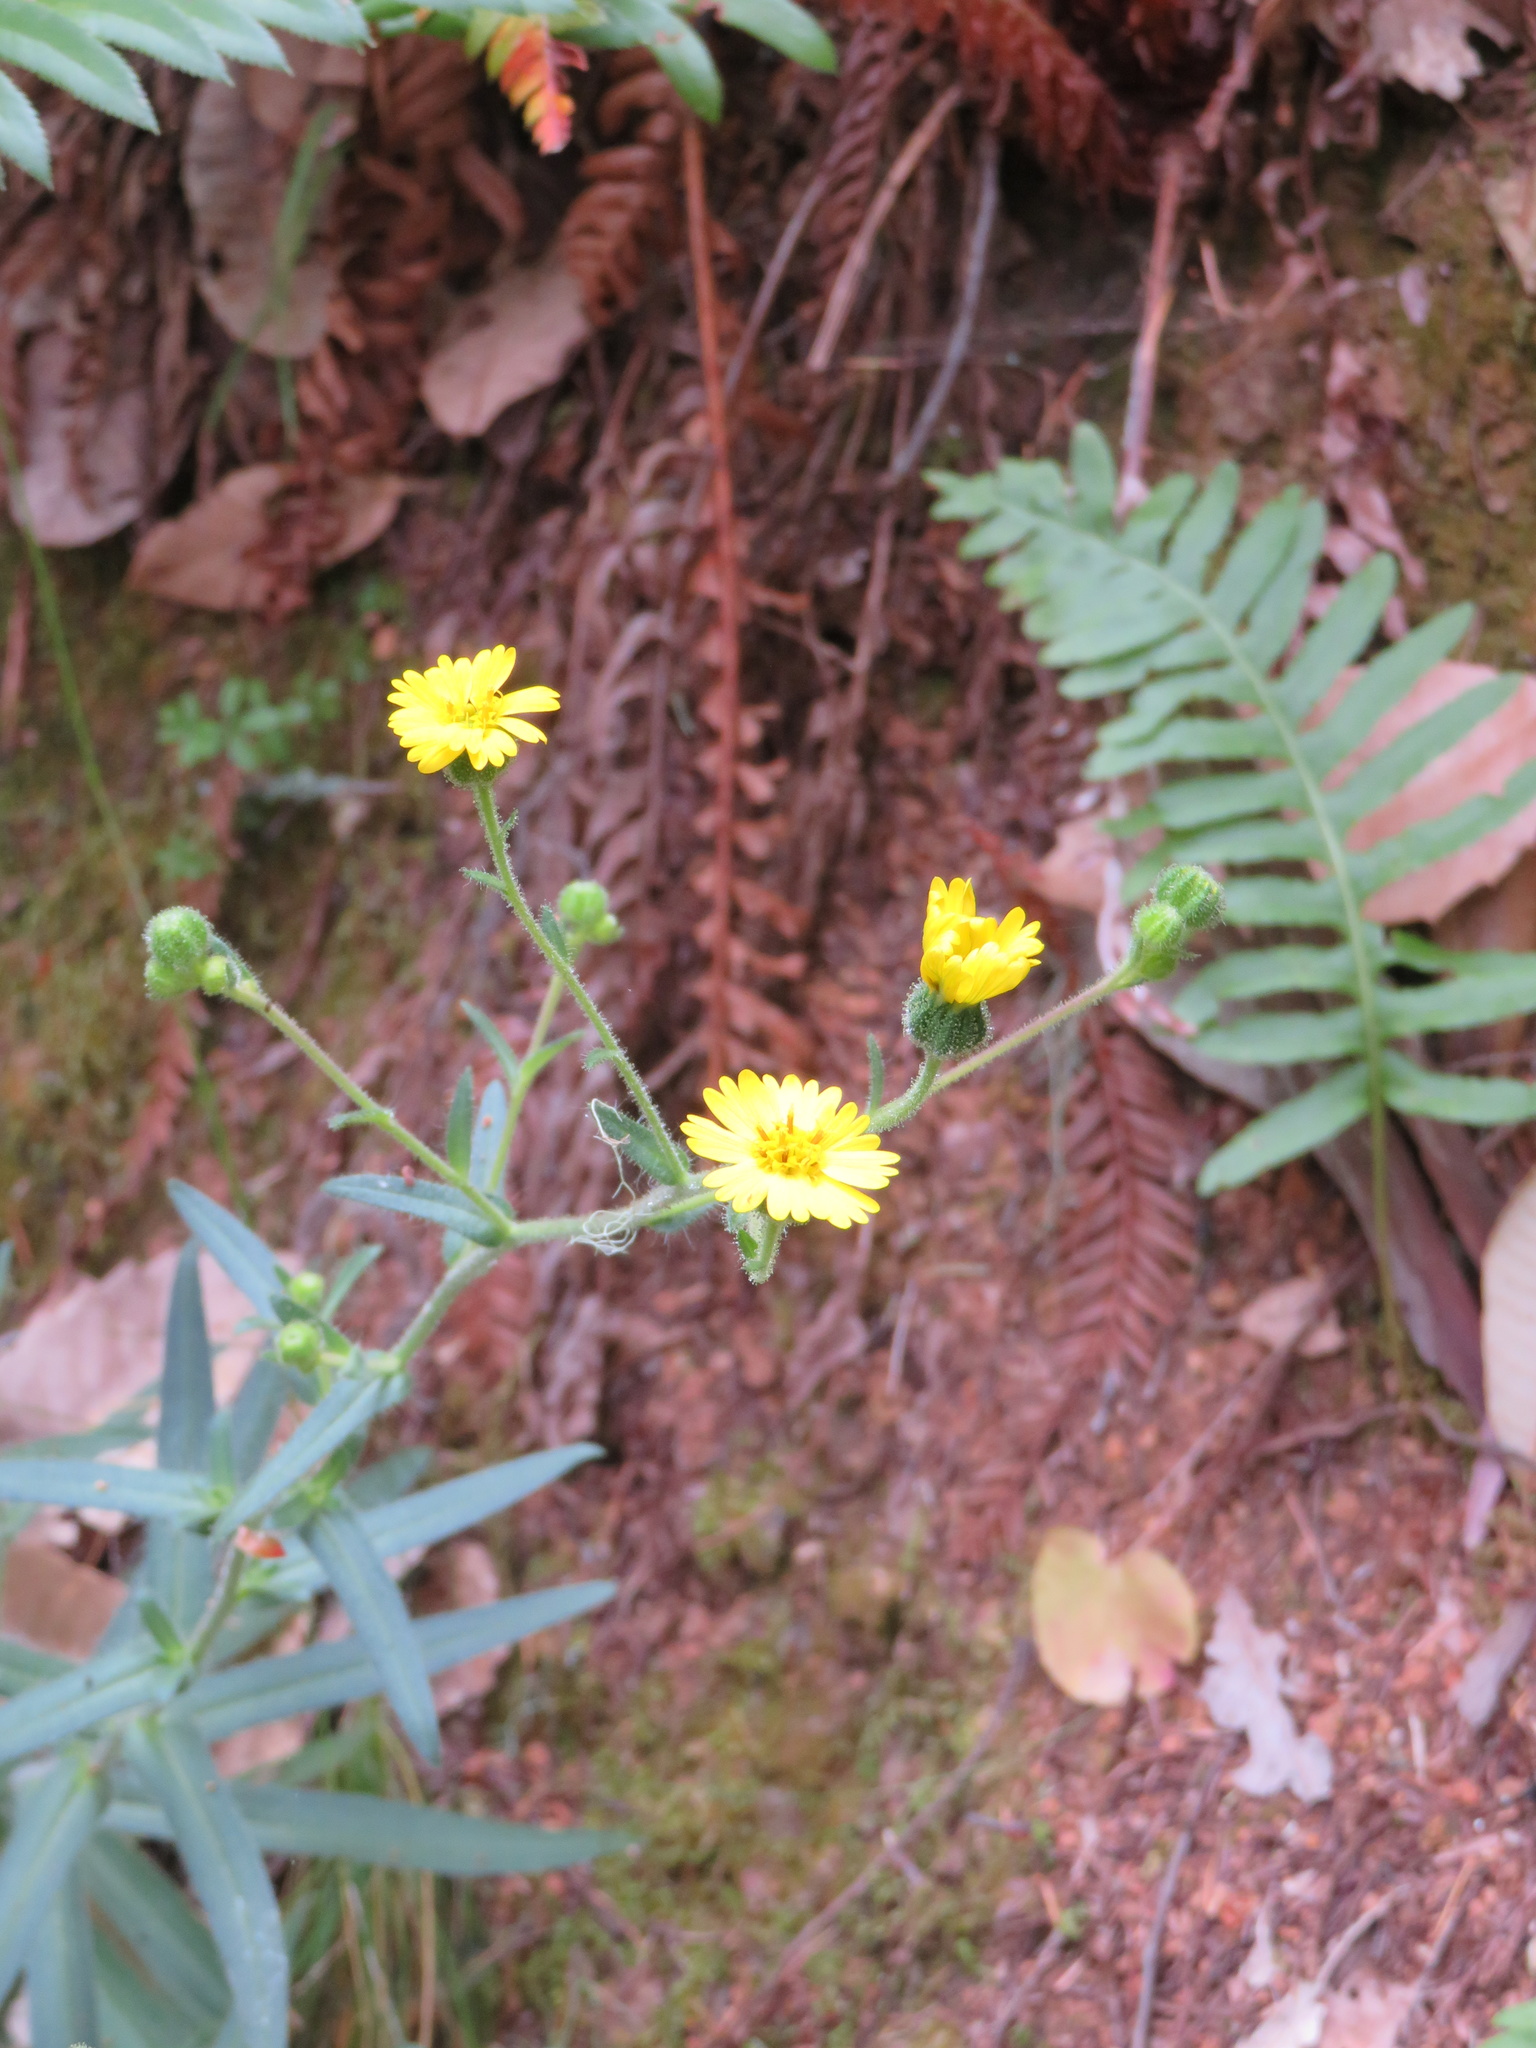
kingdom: Plantae
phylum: Tracheophyta
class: Magnoliopsida
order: Asterales
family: Asteraceae
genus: Anisocarpus
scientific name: Anisocarpus madioides
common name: Woodland madia
